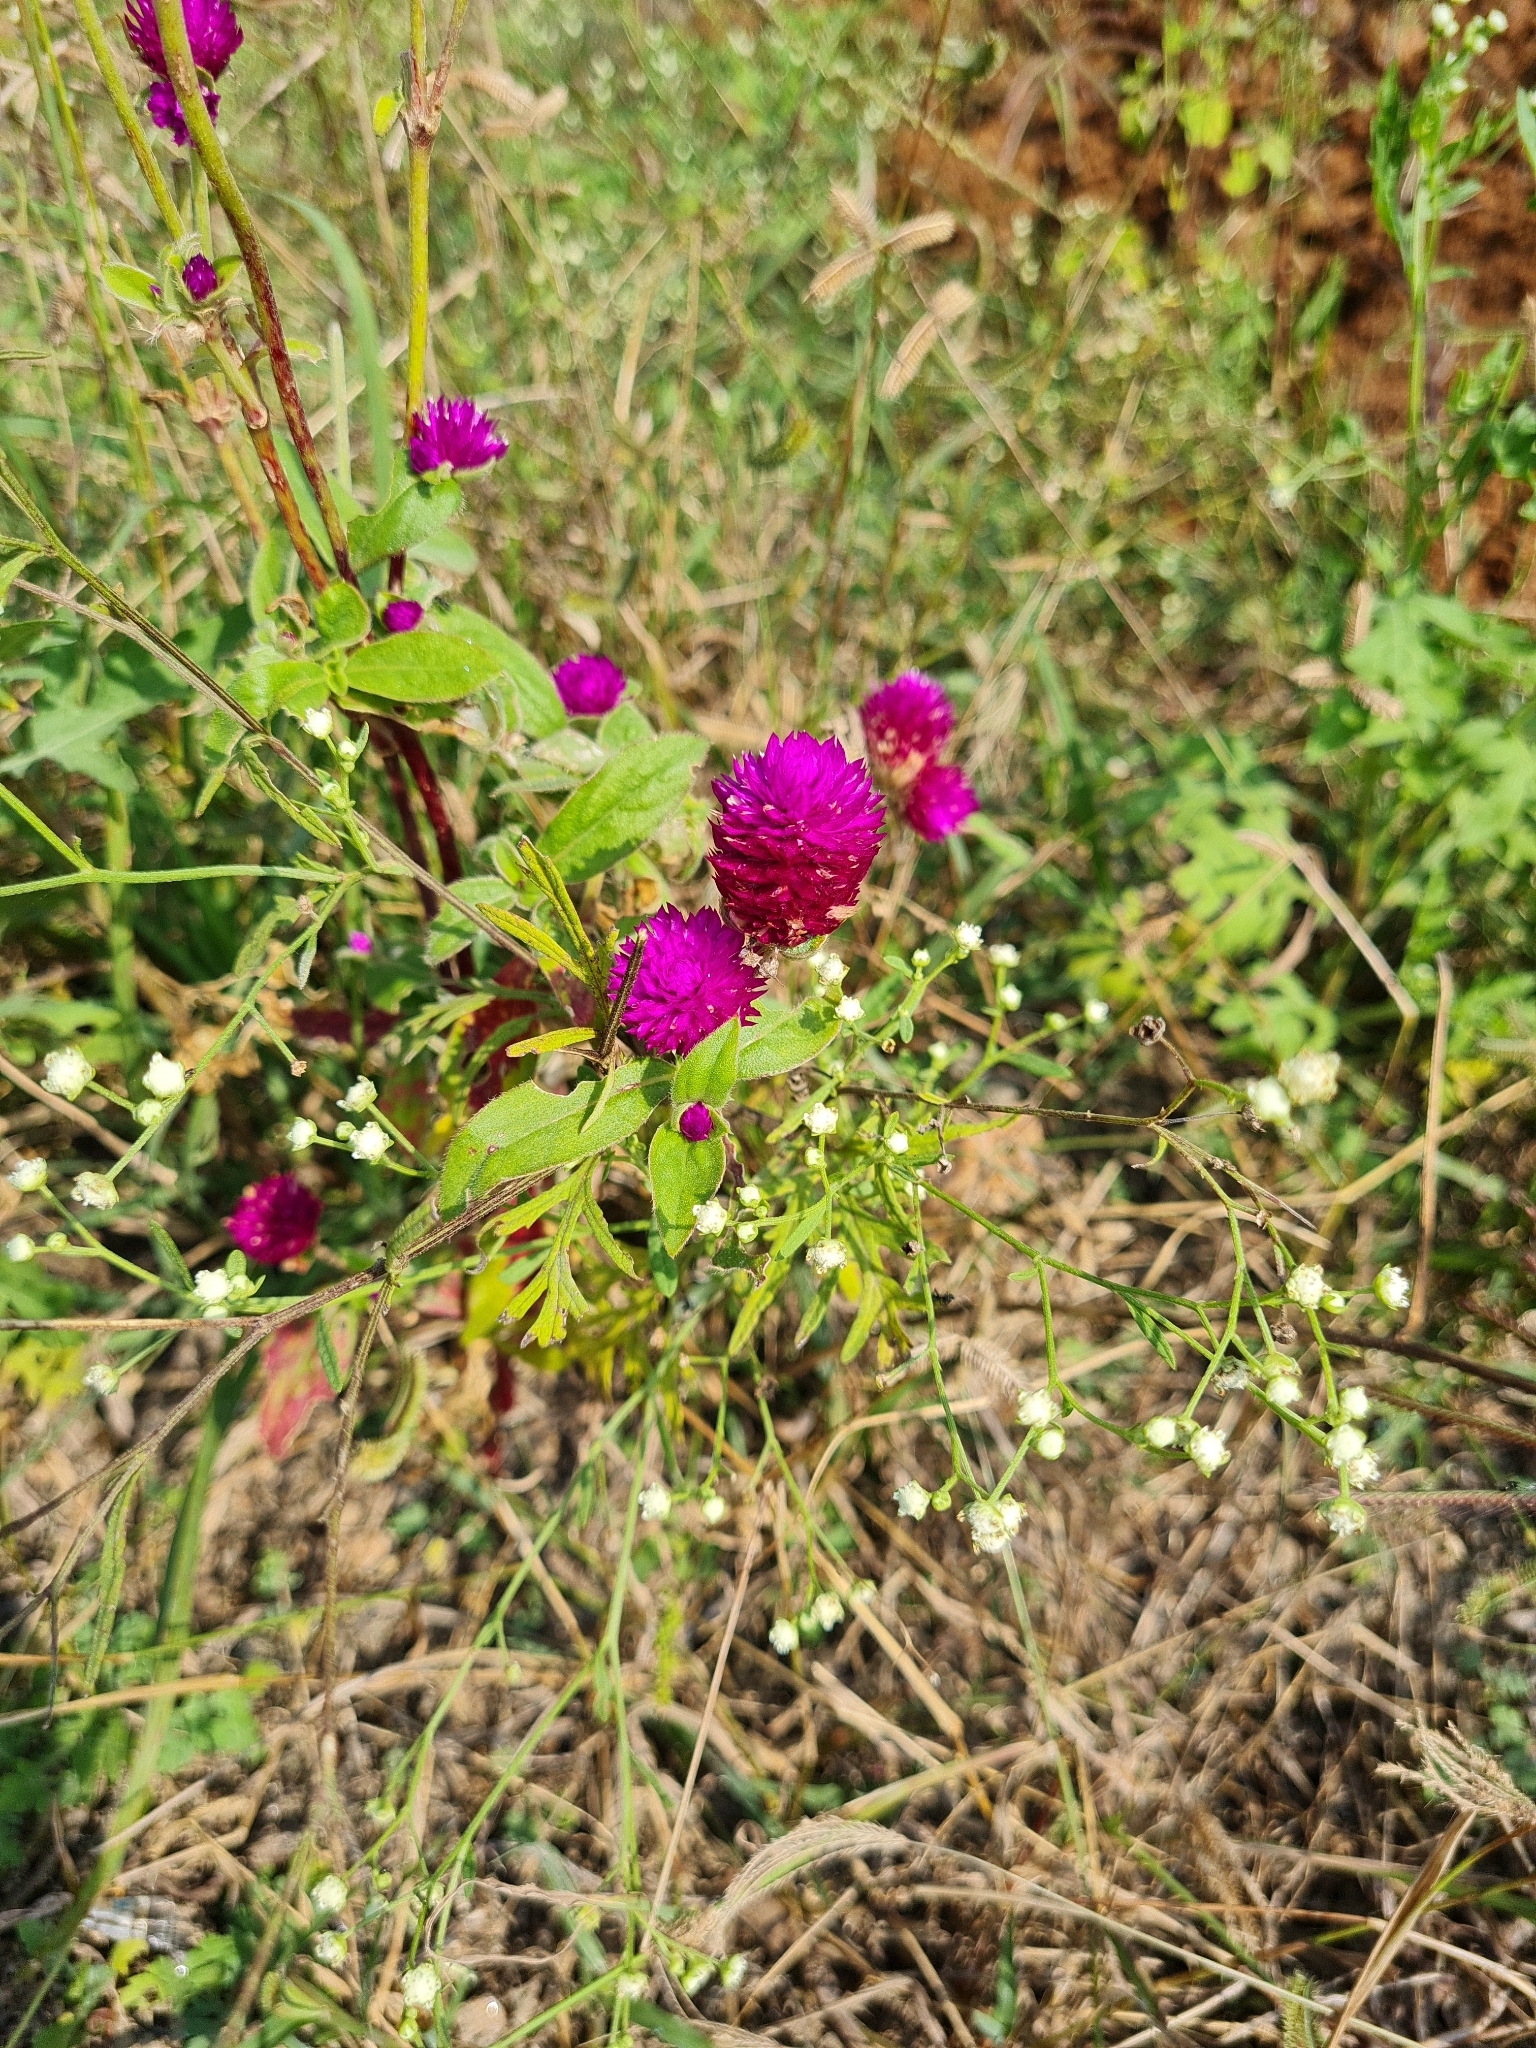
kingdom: Plantae
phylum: Tracheophyta
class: Magnoliopsida
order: Caryophyllales
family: Amaranthaceae
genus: Gomphrena
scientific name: Gomphrena globosa
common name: Common globe amaranth
